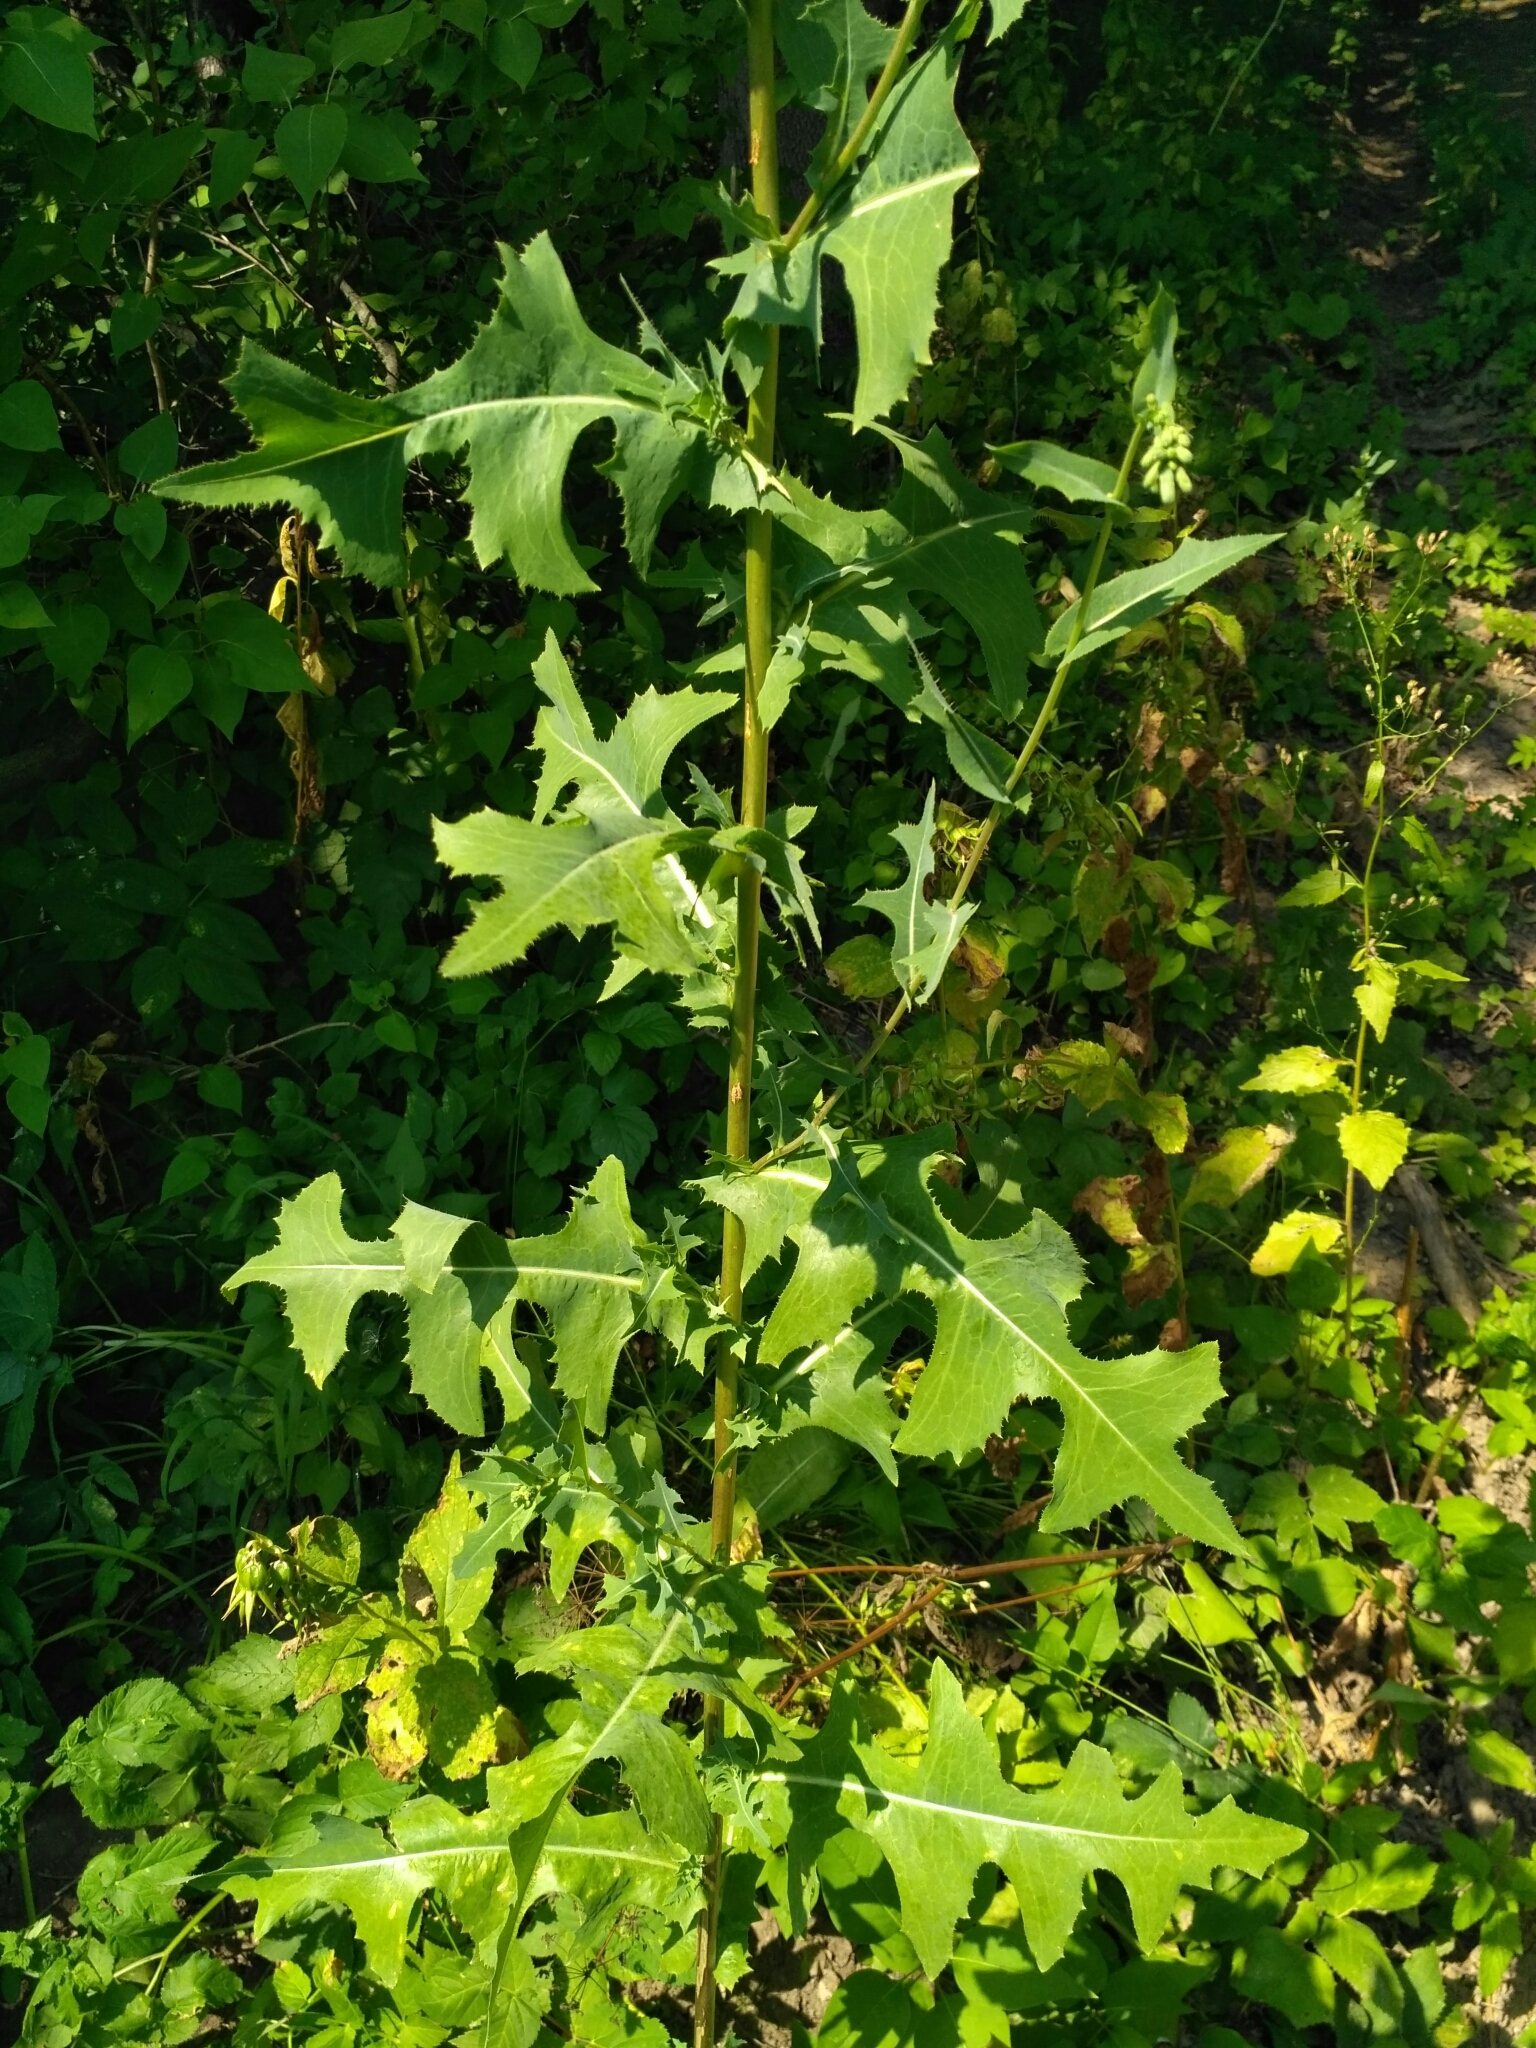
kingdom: Plantae
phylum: Tracheophyta
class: Magnoliopsida
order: Asterales
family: Asteraceae
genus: Lactuca
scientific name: Lactuca serriola
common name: Prickly lettuce
